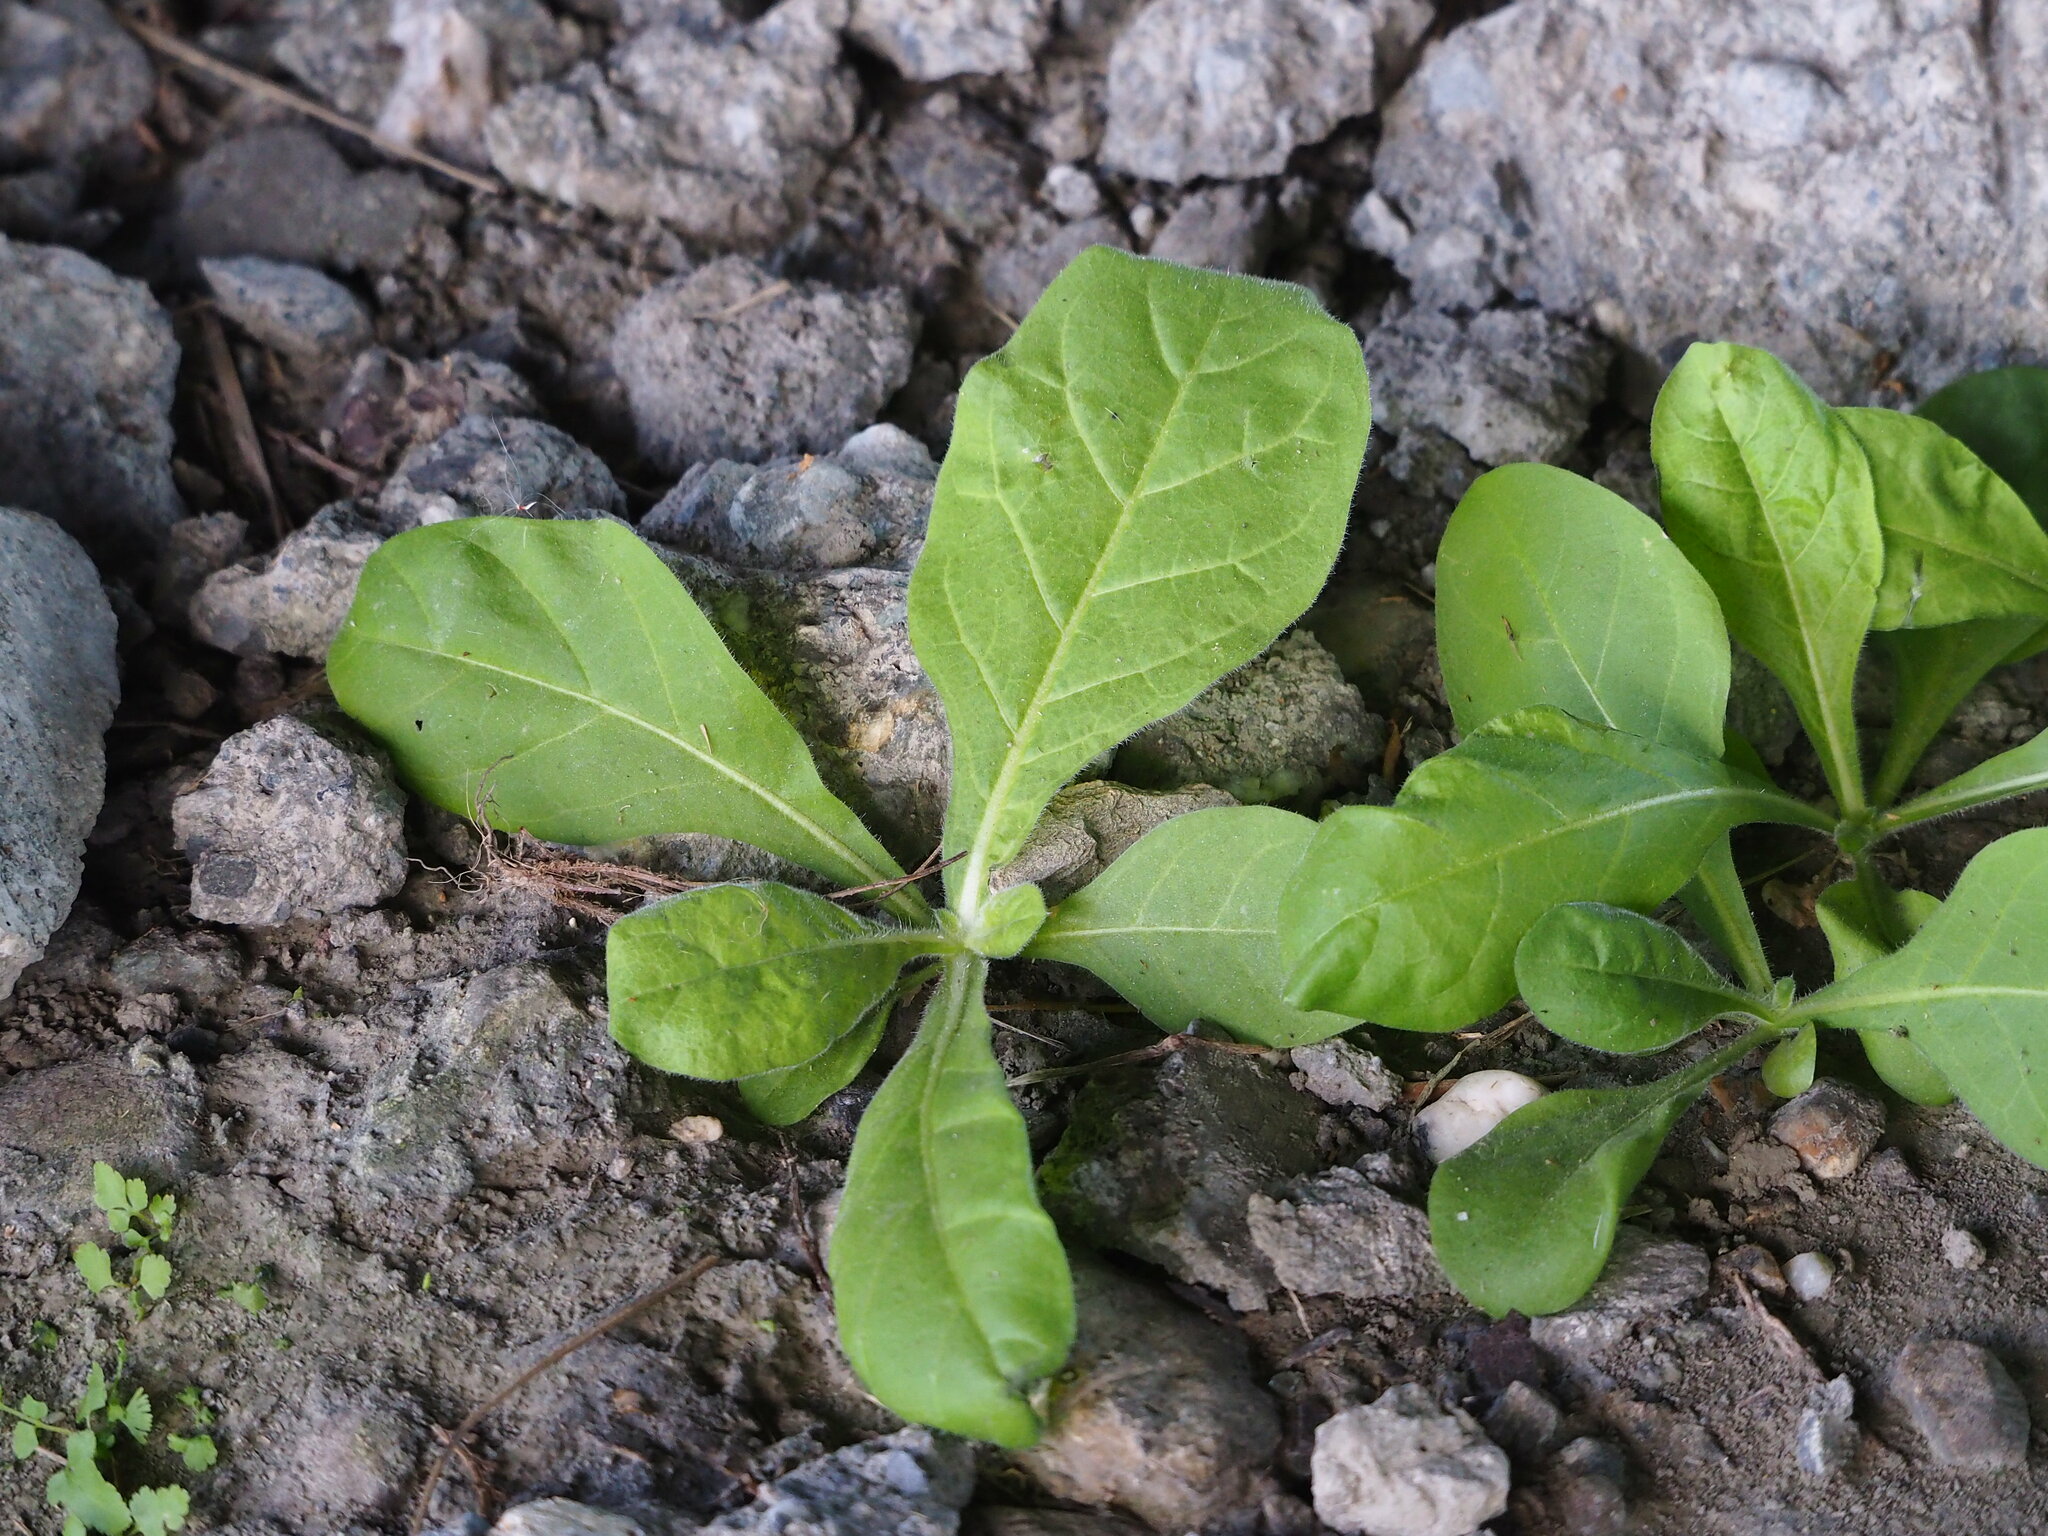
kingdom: Plantae
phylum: Tracheophyta
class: Magnoliopsida
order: Solanales
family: Solanaceae
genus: Nicotiana
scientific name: Nicotiana plumbaginifolia
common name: Tex-mex tobacco
